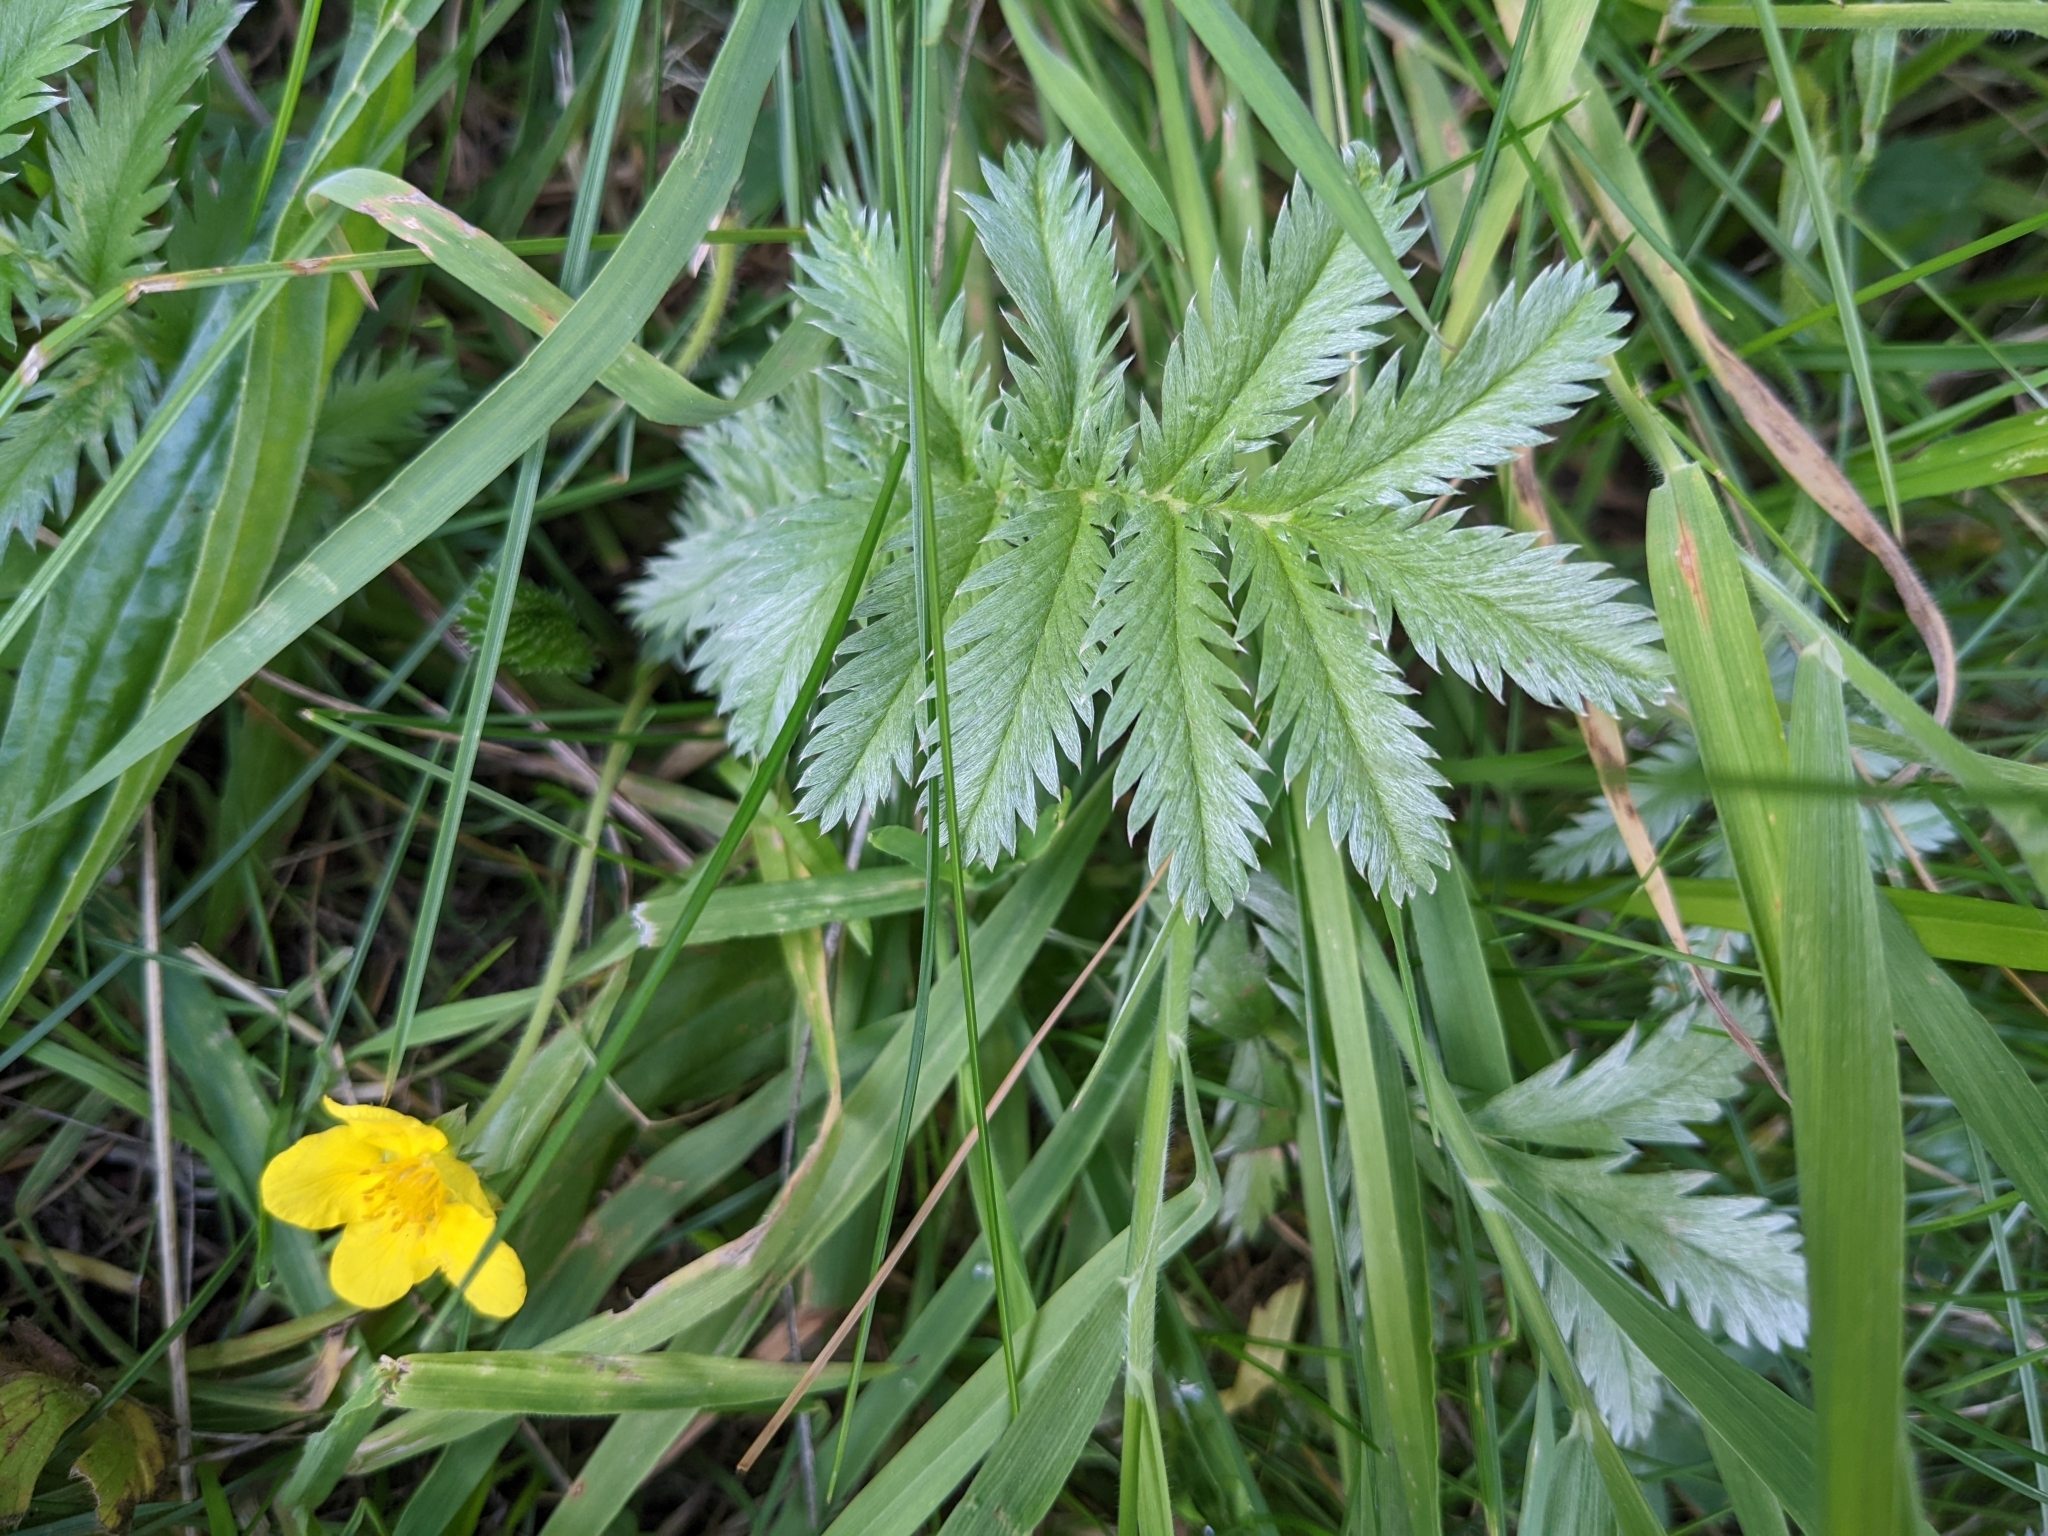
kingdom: Plantae
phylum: Tracheophyta
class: Magnoliopsida
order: Rosales
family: Rosaceae
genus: Argentina
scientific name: Argentina anserina
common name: Common silverweed
